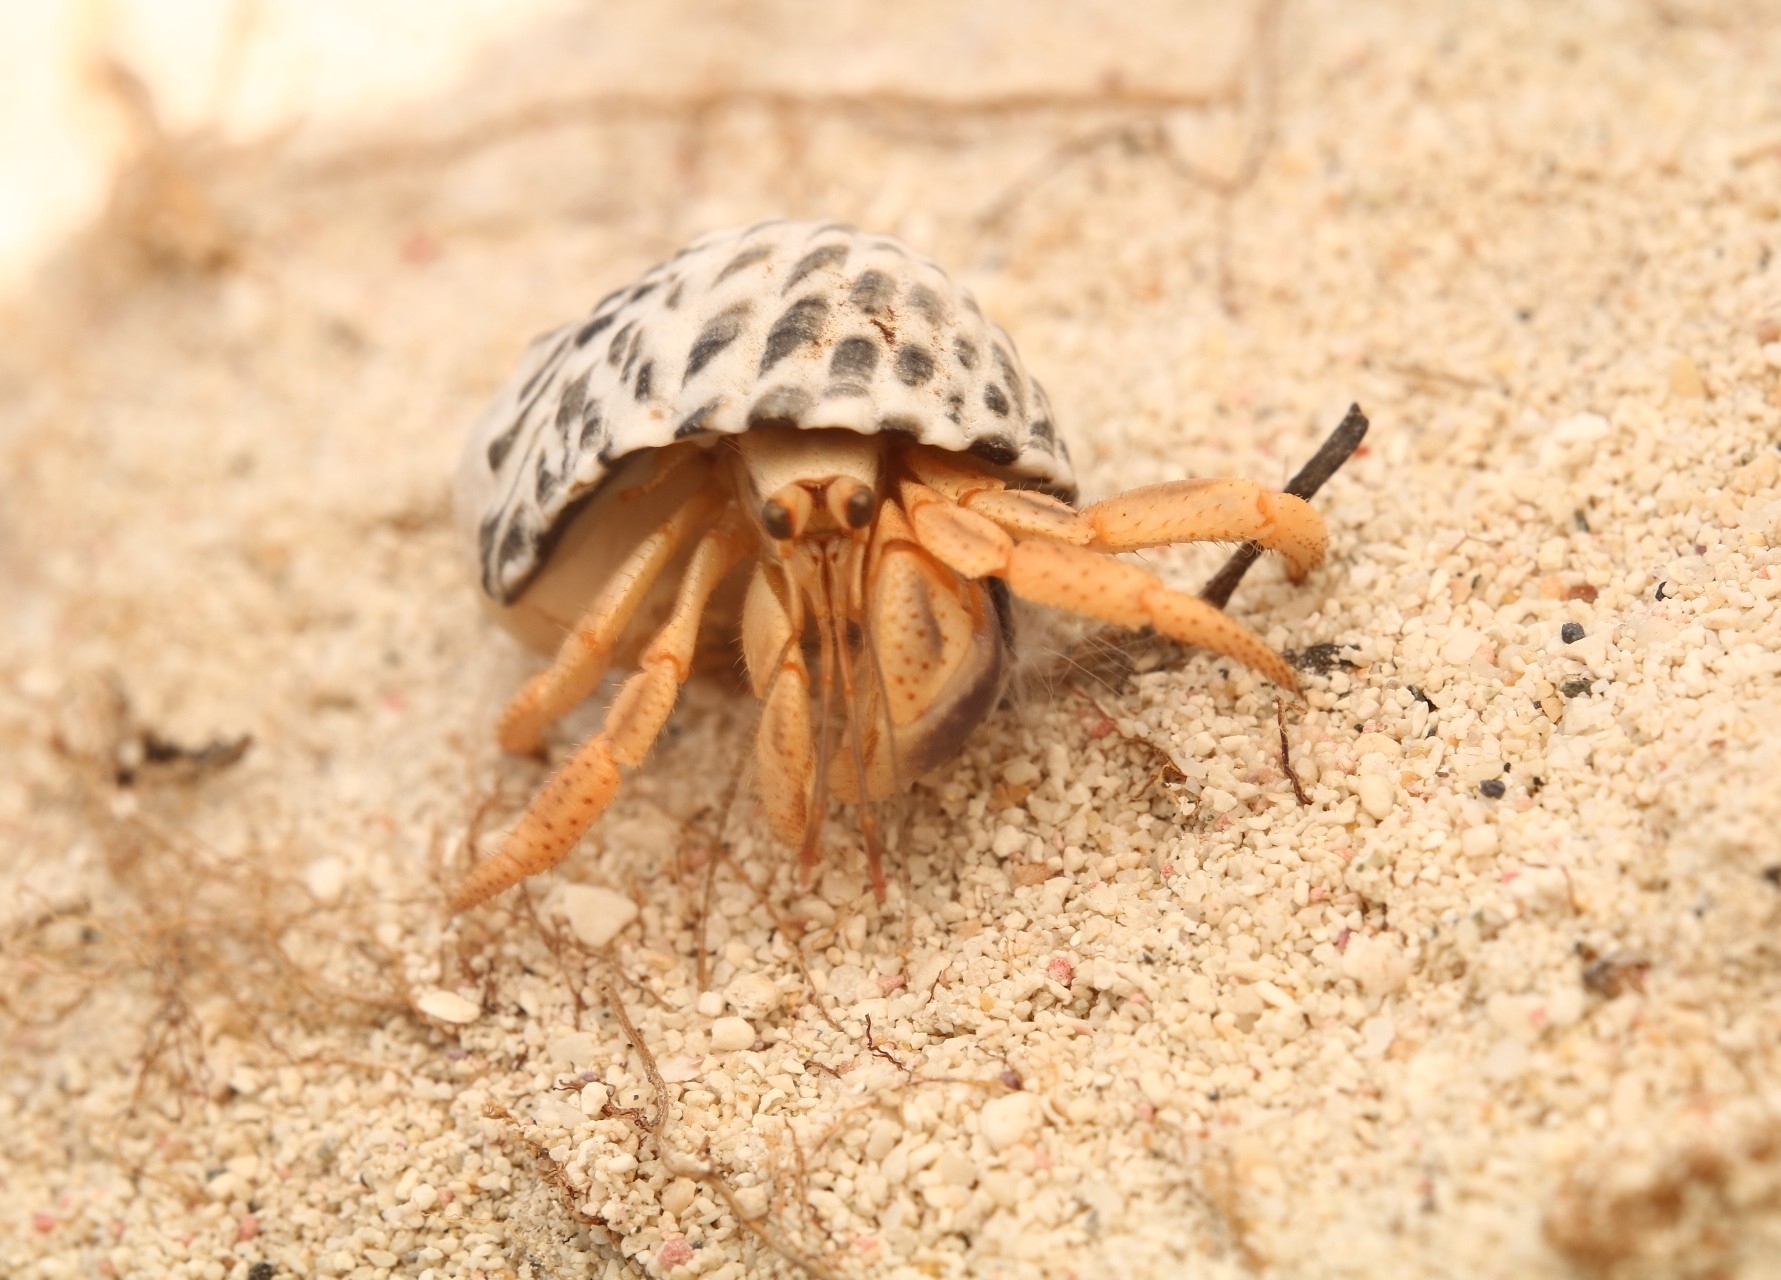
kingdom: Animalia
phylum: Arthropoda
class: Malacostraca
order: Decapoda
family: Coenobitidae
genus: Coenobita
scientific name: Coenobita clypeatus
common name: Caribbean hermit crab
